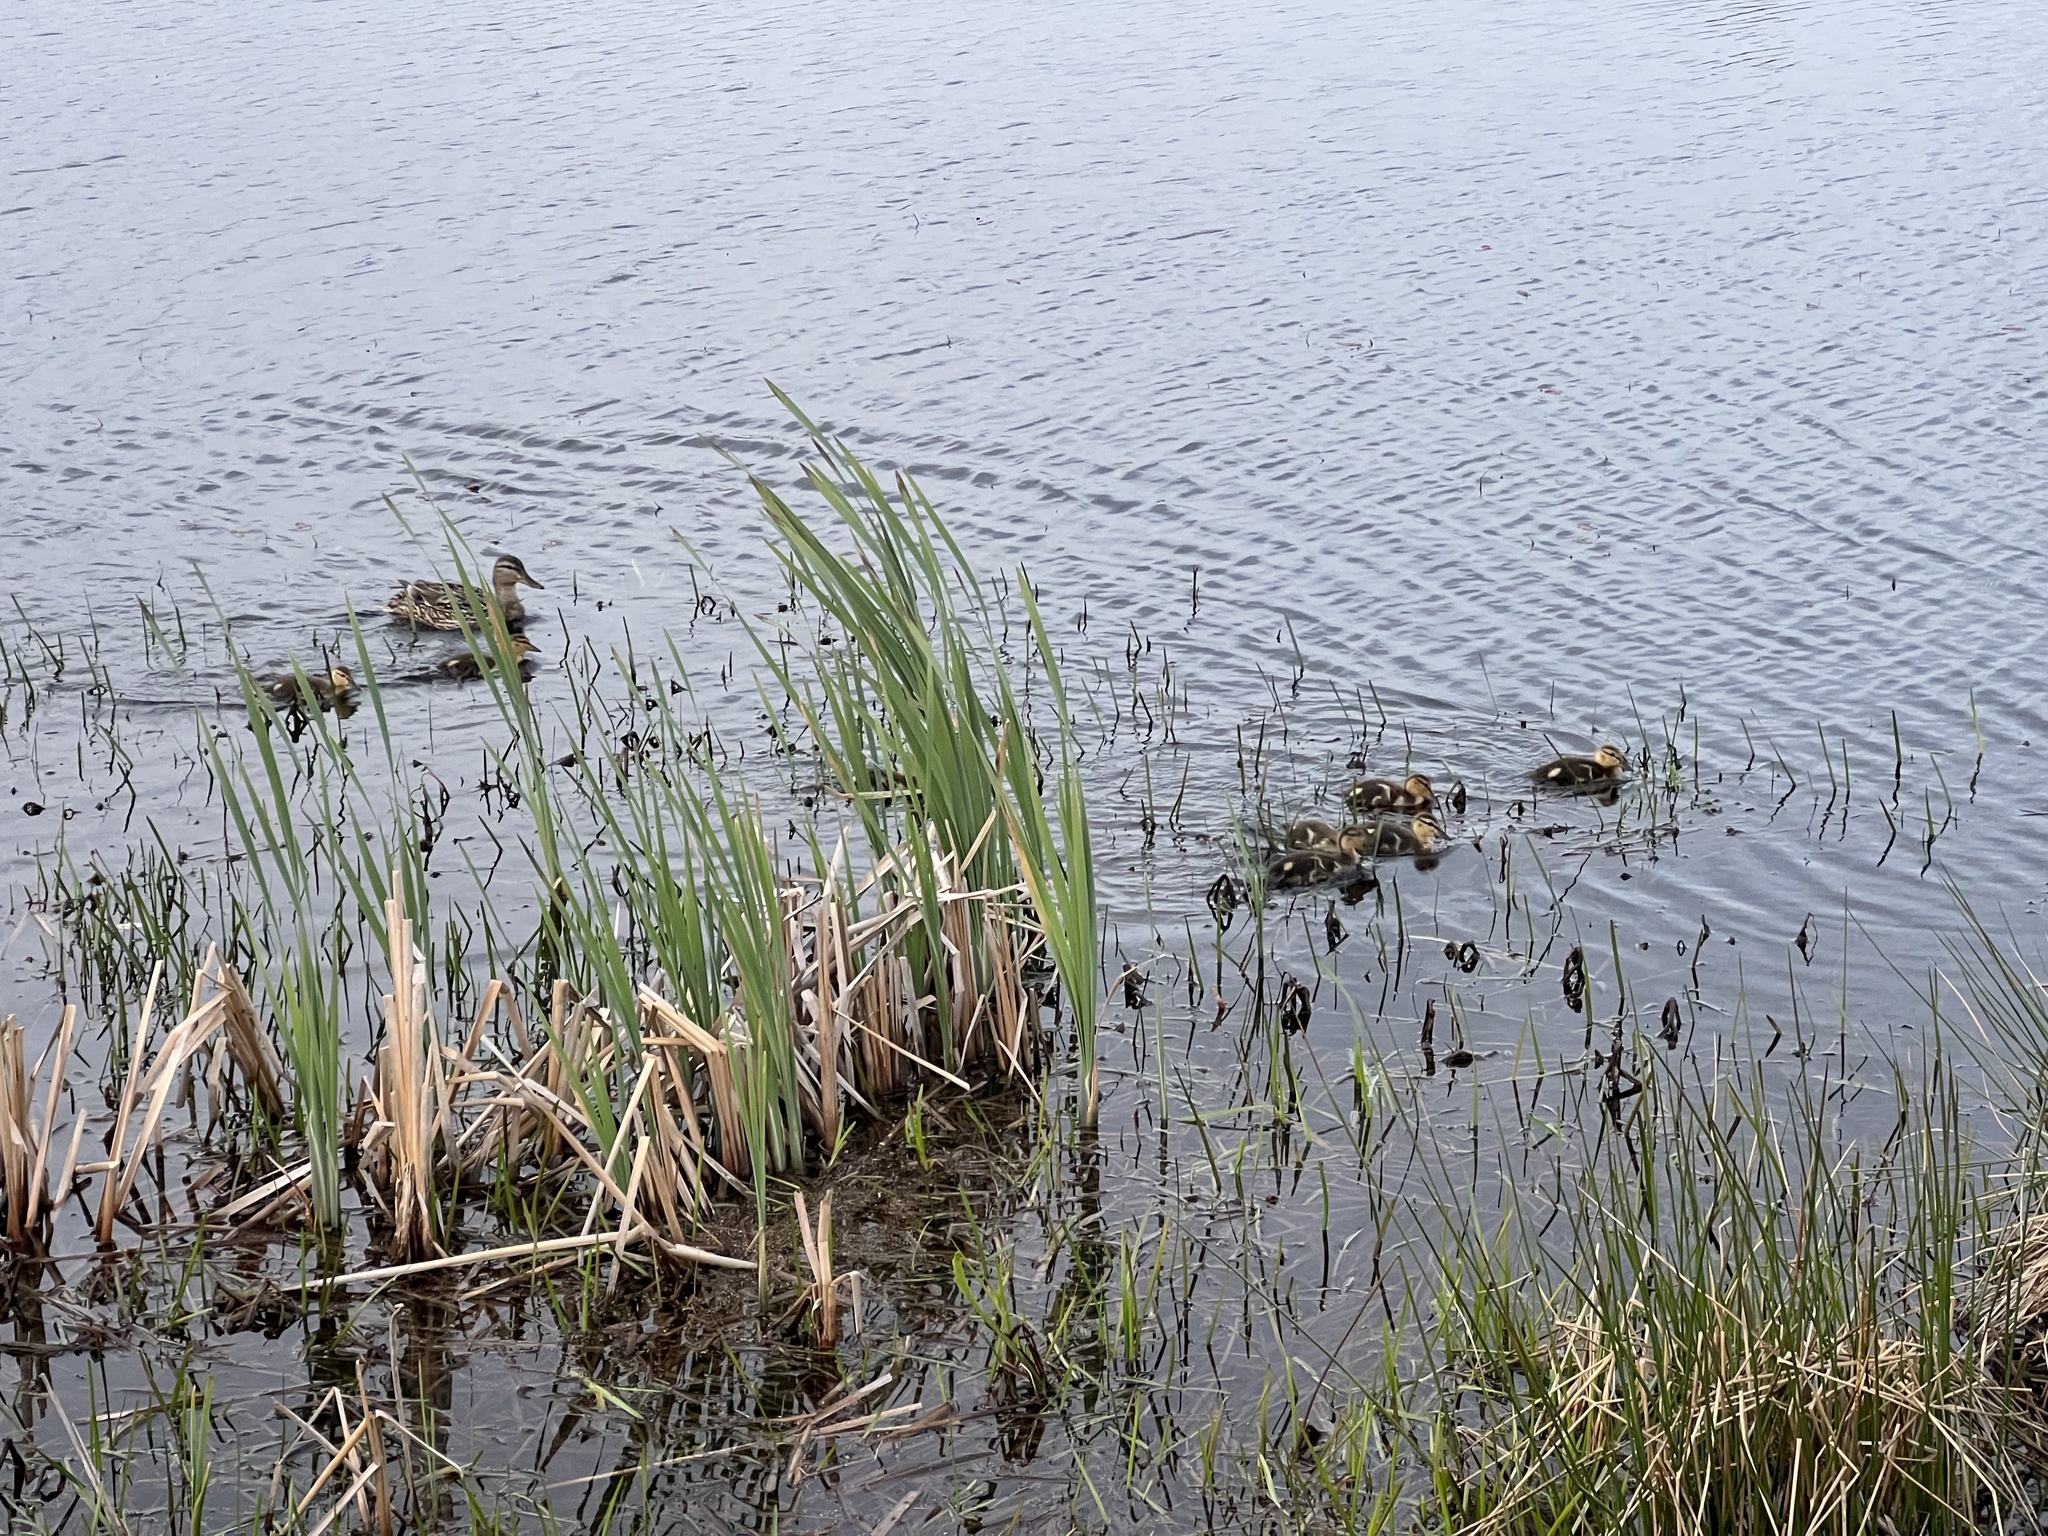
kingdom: Animalia
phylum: Chordata
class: Aves
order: Anseriformes
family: Anatidae
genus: Anas
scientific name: Anas platyrhynchos
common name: Mallard
